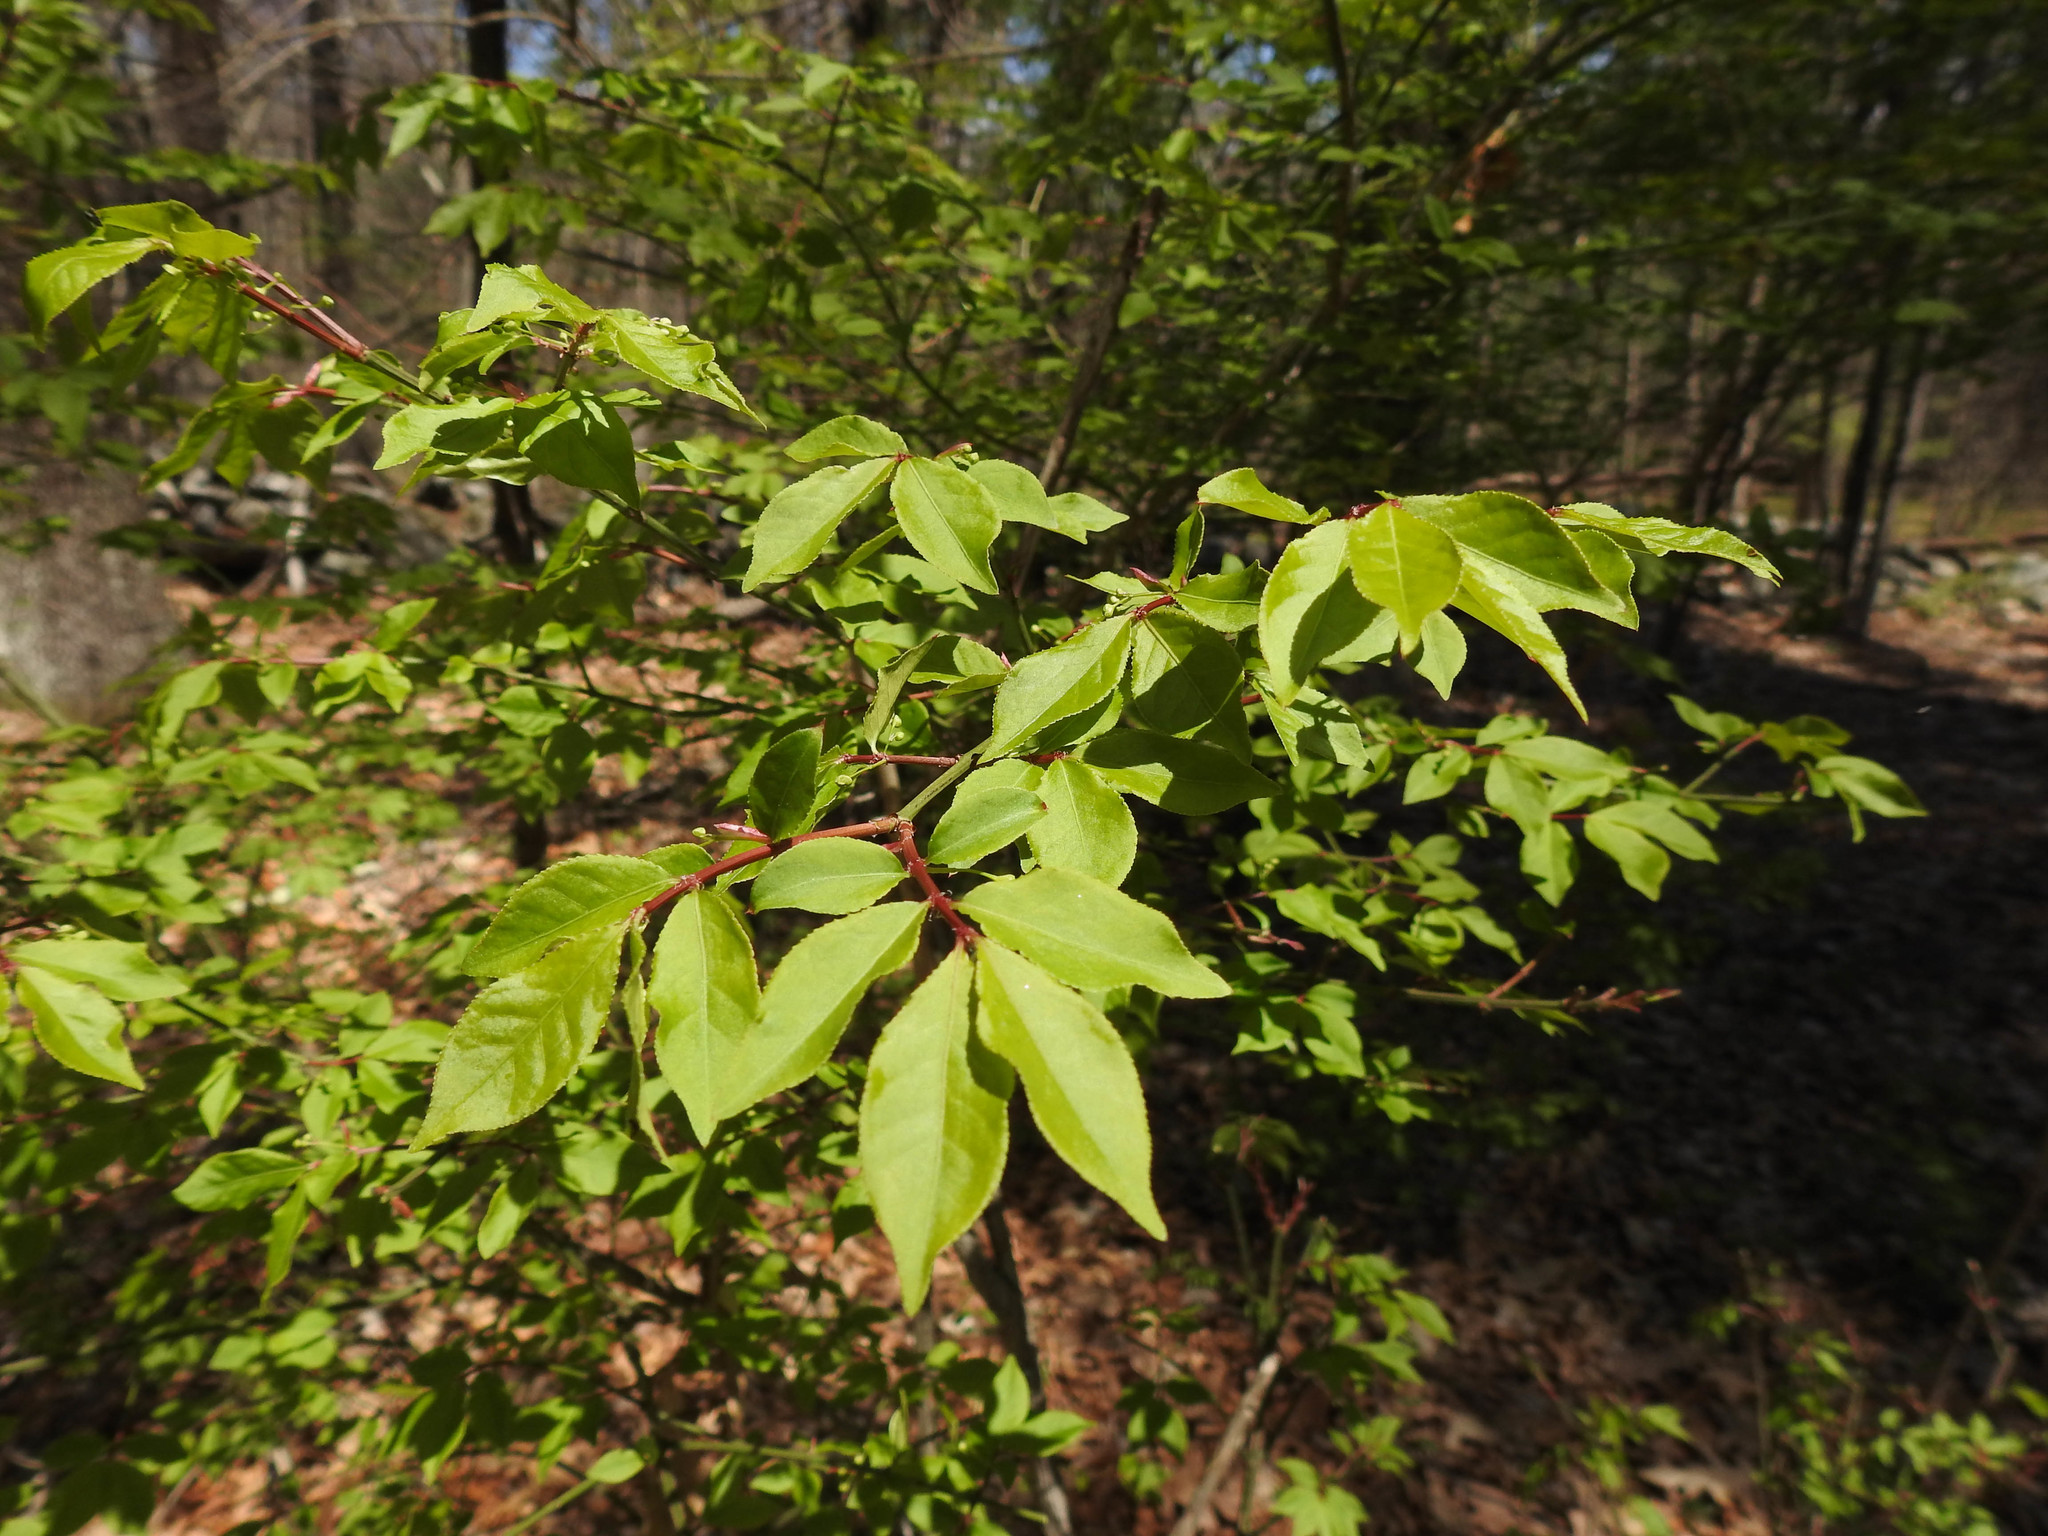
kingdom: Plantae
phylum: Tracheophyta
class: Magnoliopsida
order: Celastrales
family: Celastraceae
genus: Euonymus
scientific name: Euonymus alatus
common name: Winged euonymus
